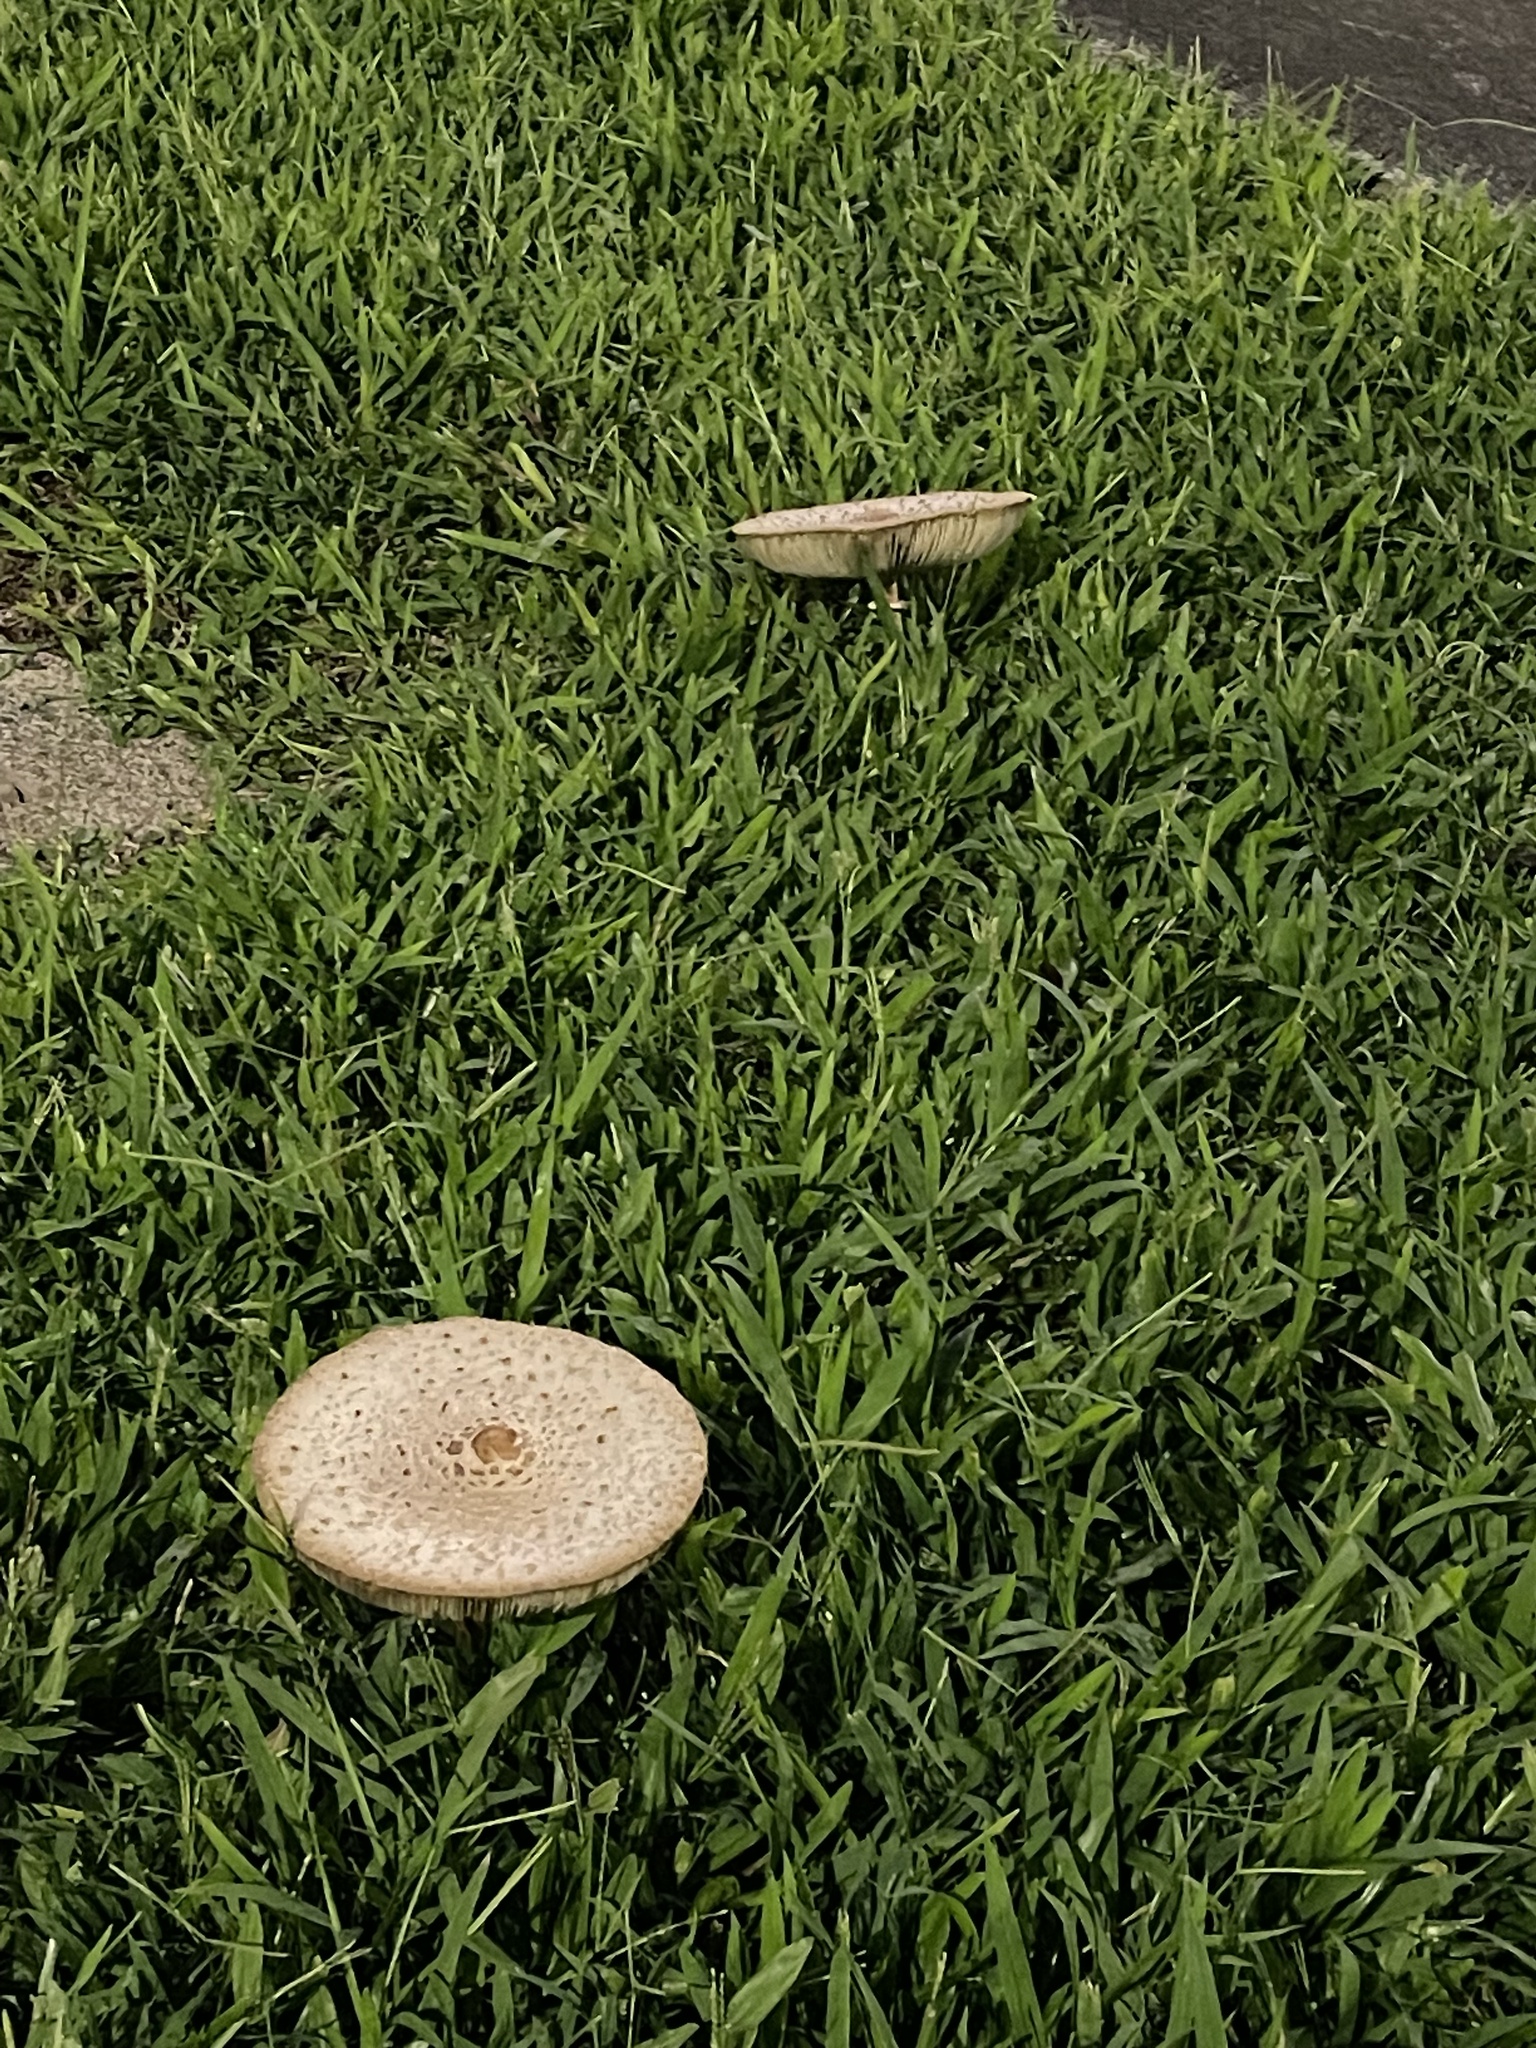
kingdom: Fungi
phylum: Basidiomycota
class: Agaricomycetes
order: Agaricales
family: Agaricaceae
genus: Chlorophyllum
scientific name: Chlorophyllum molybdites
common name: False parasol
